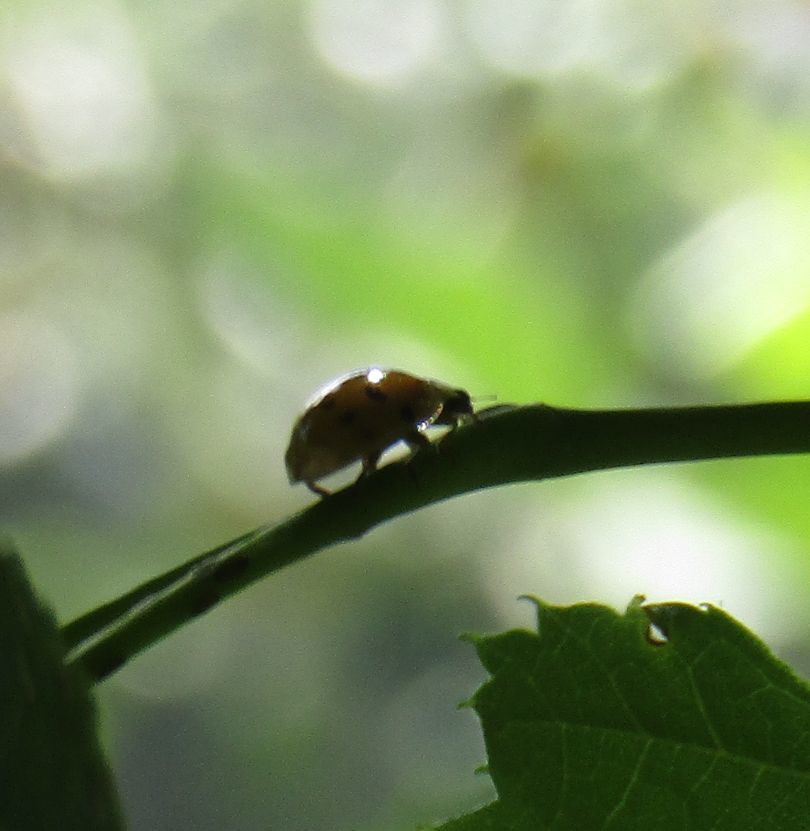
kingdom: Animalia
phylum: Arthropoda
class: Insecta
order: Coleoptera
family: Coccinellidae
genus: Harmonia
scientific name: Harmonia axyridis
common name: Harlequin ladybird
